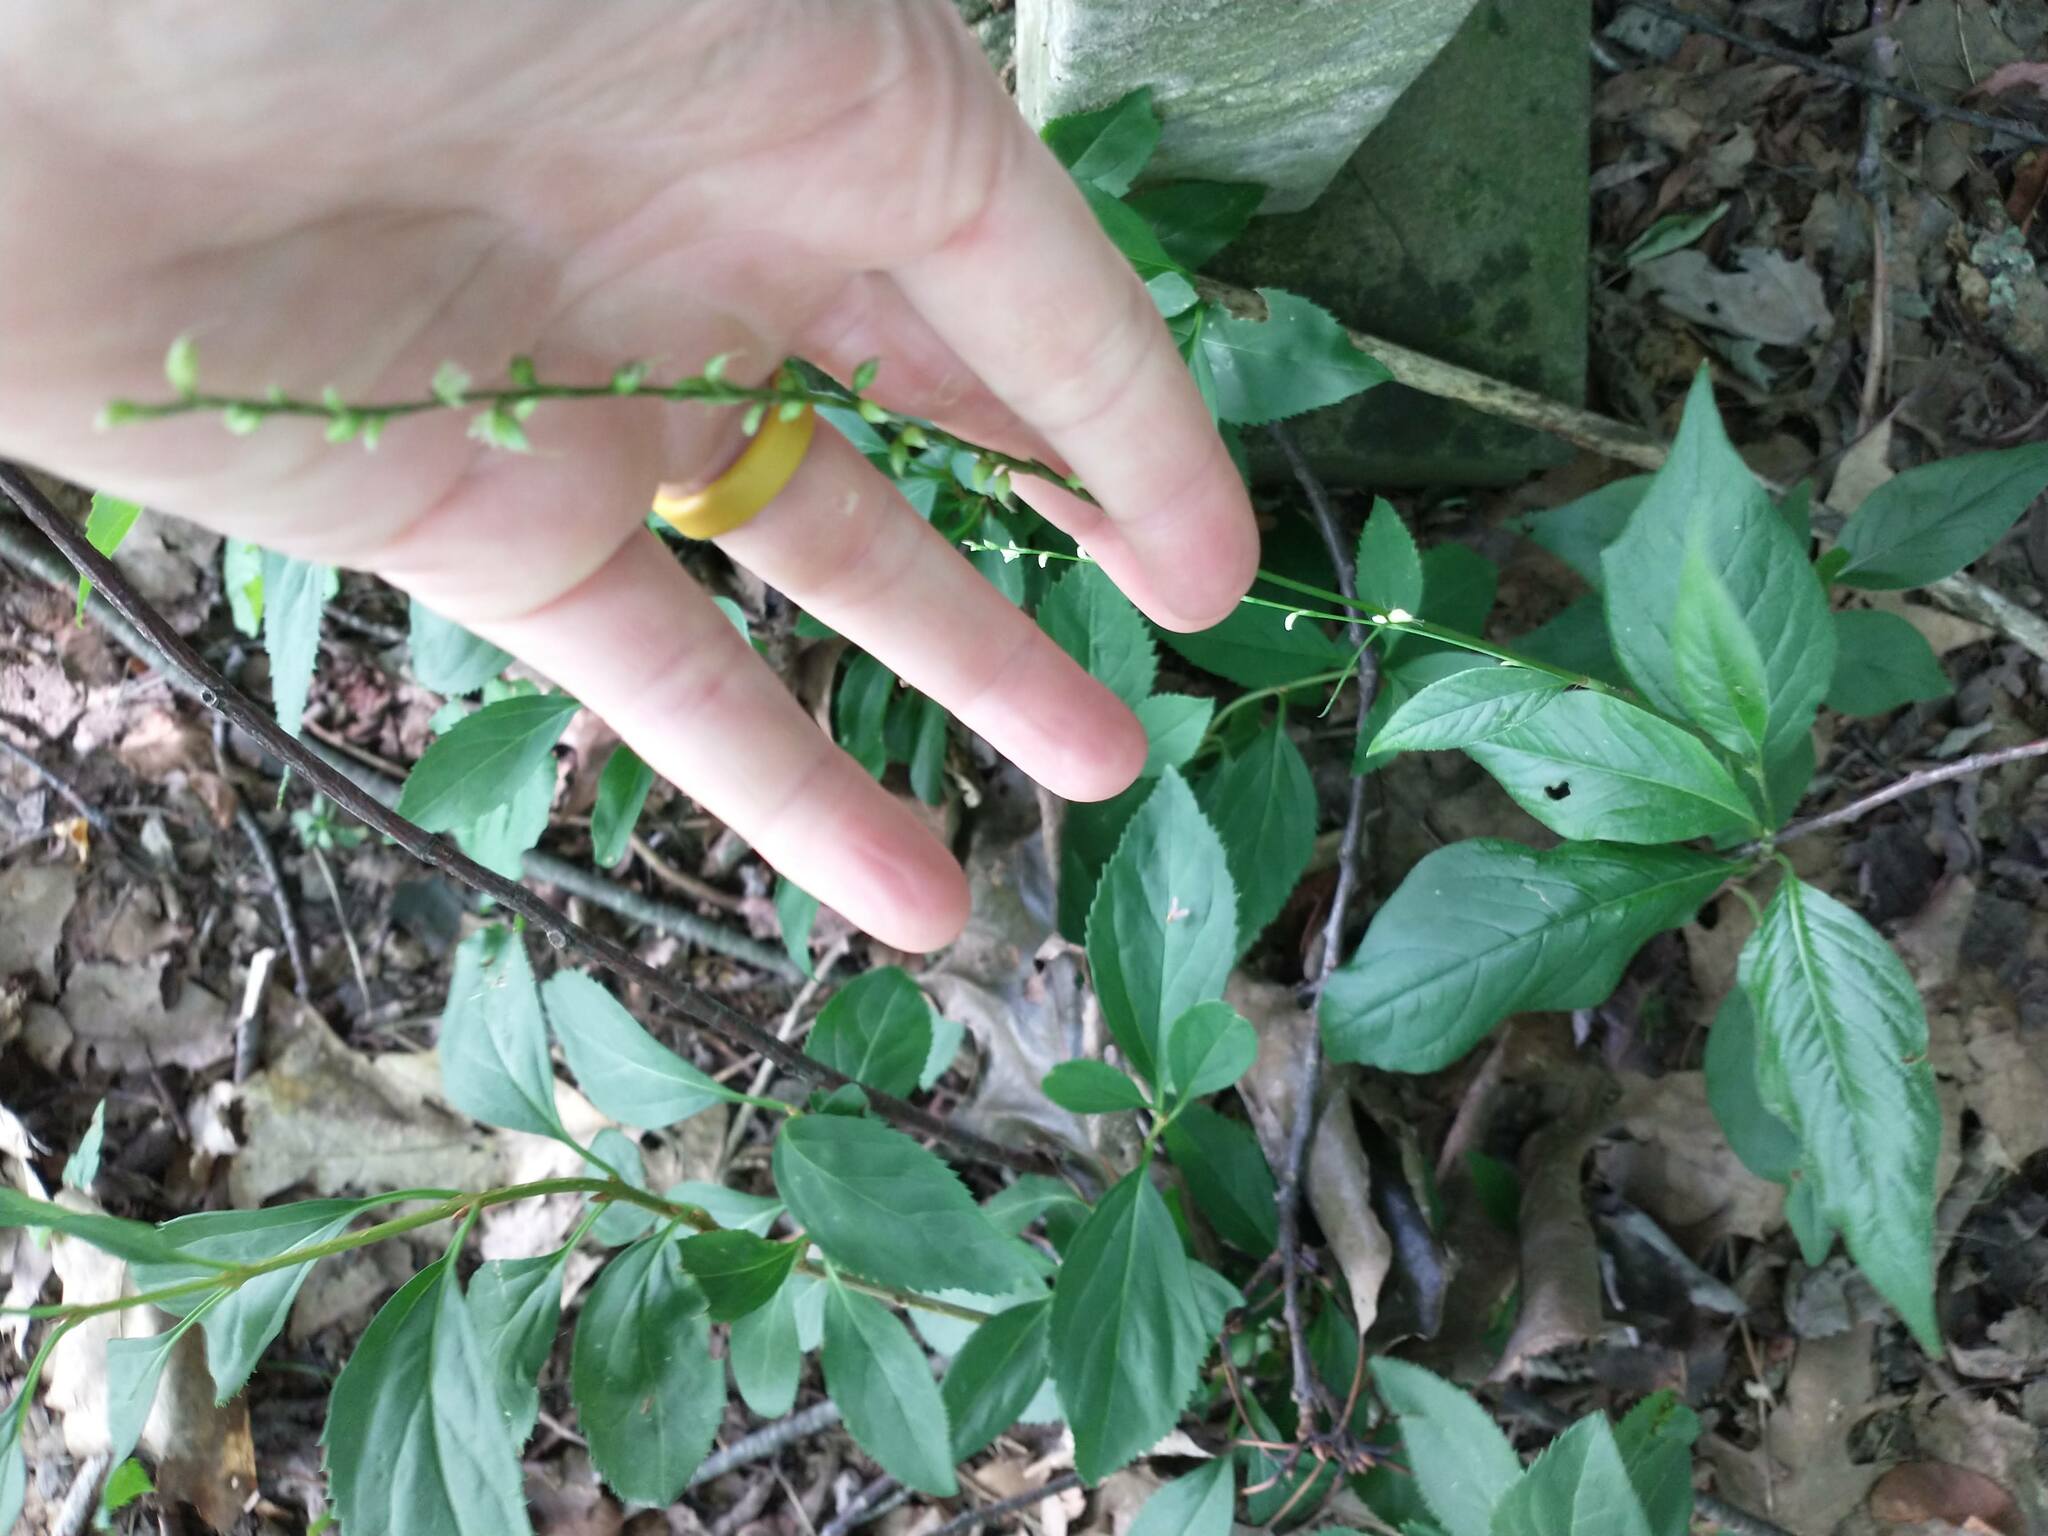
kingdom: Plantae
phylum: Tracheophyta
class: Magnoliopsida
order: Caryophyllales
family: Polygonaceae
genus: Persicaria
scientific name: Persicaria virginiana
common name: Jumpseed
